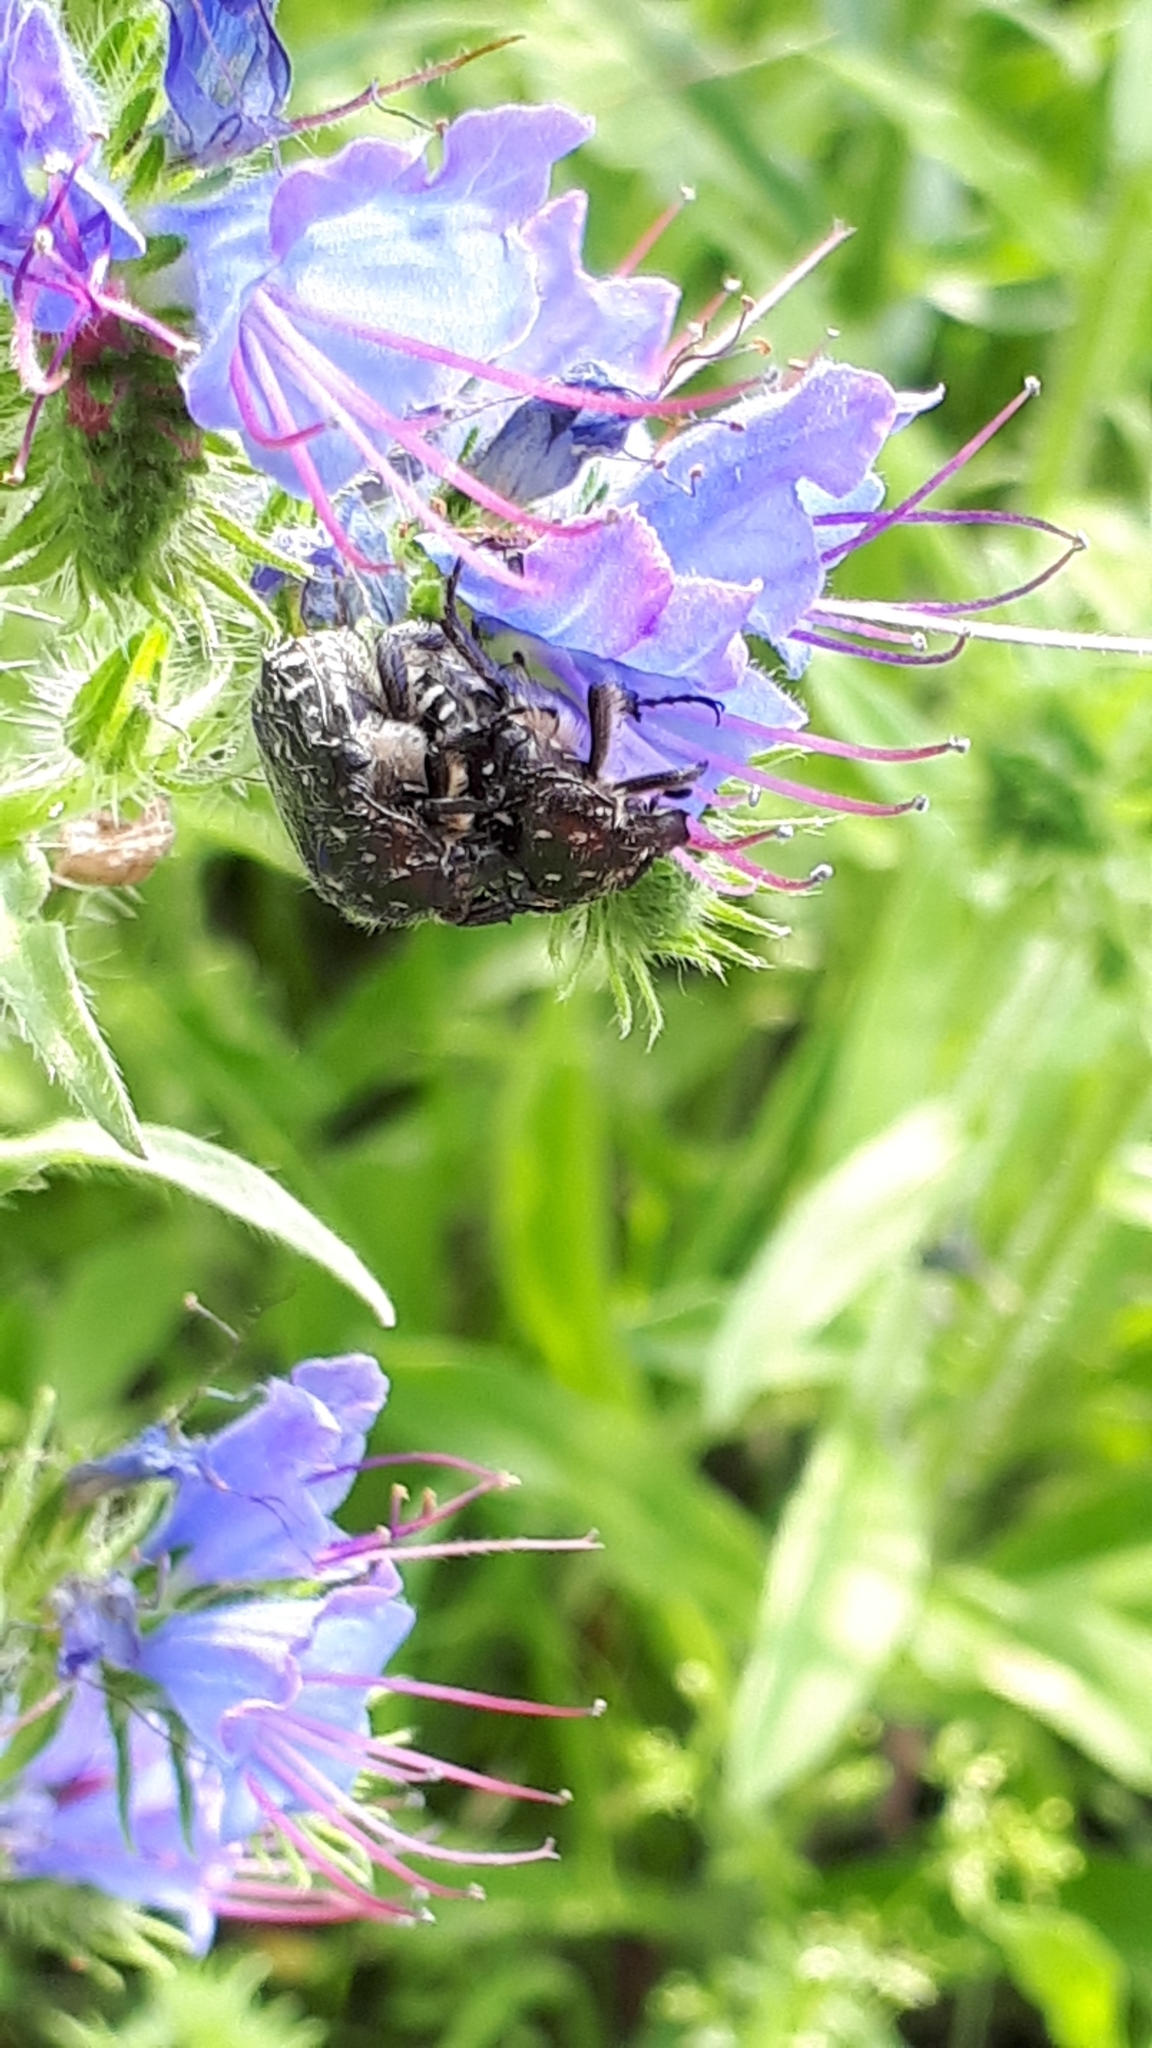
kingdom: Animalia
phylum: Arthropoda
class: Insecta
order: Coleoptera
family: Scarabaeidae
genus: Oxythyrea
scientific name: Oxythyrea funesta
